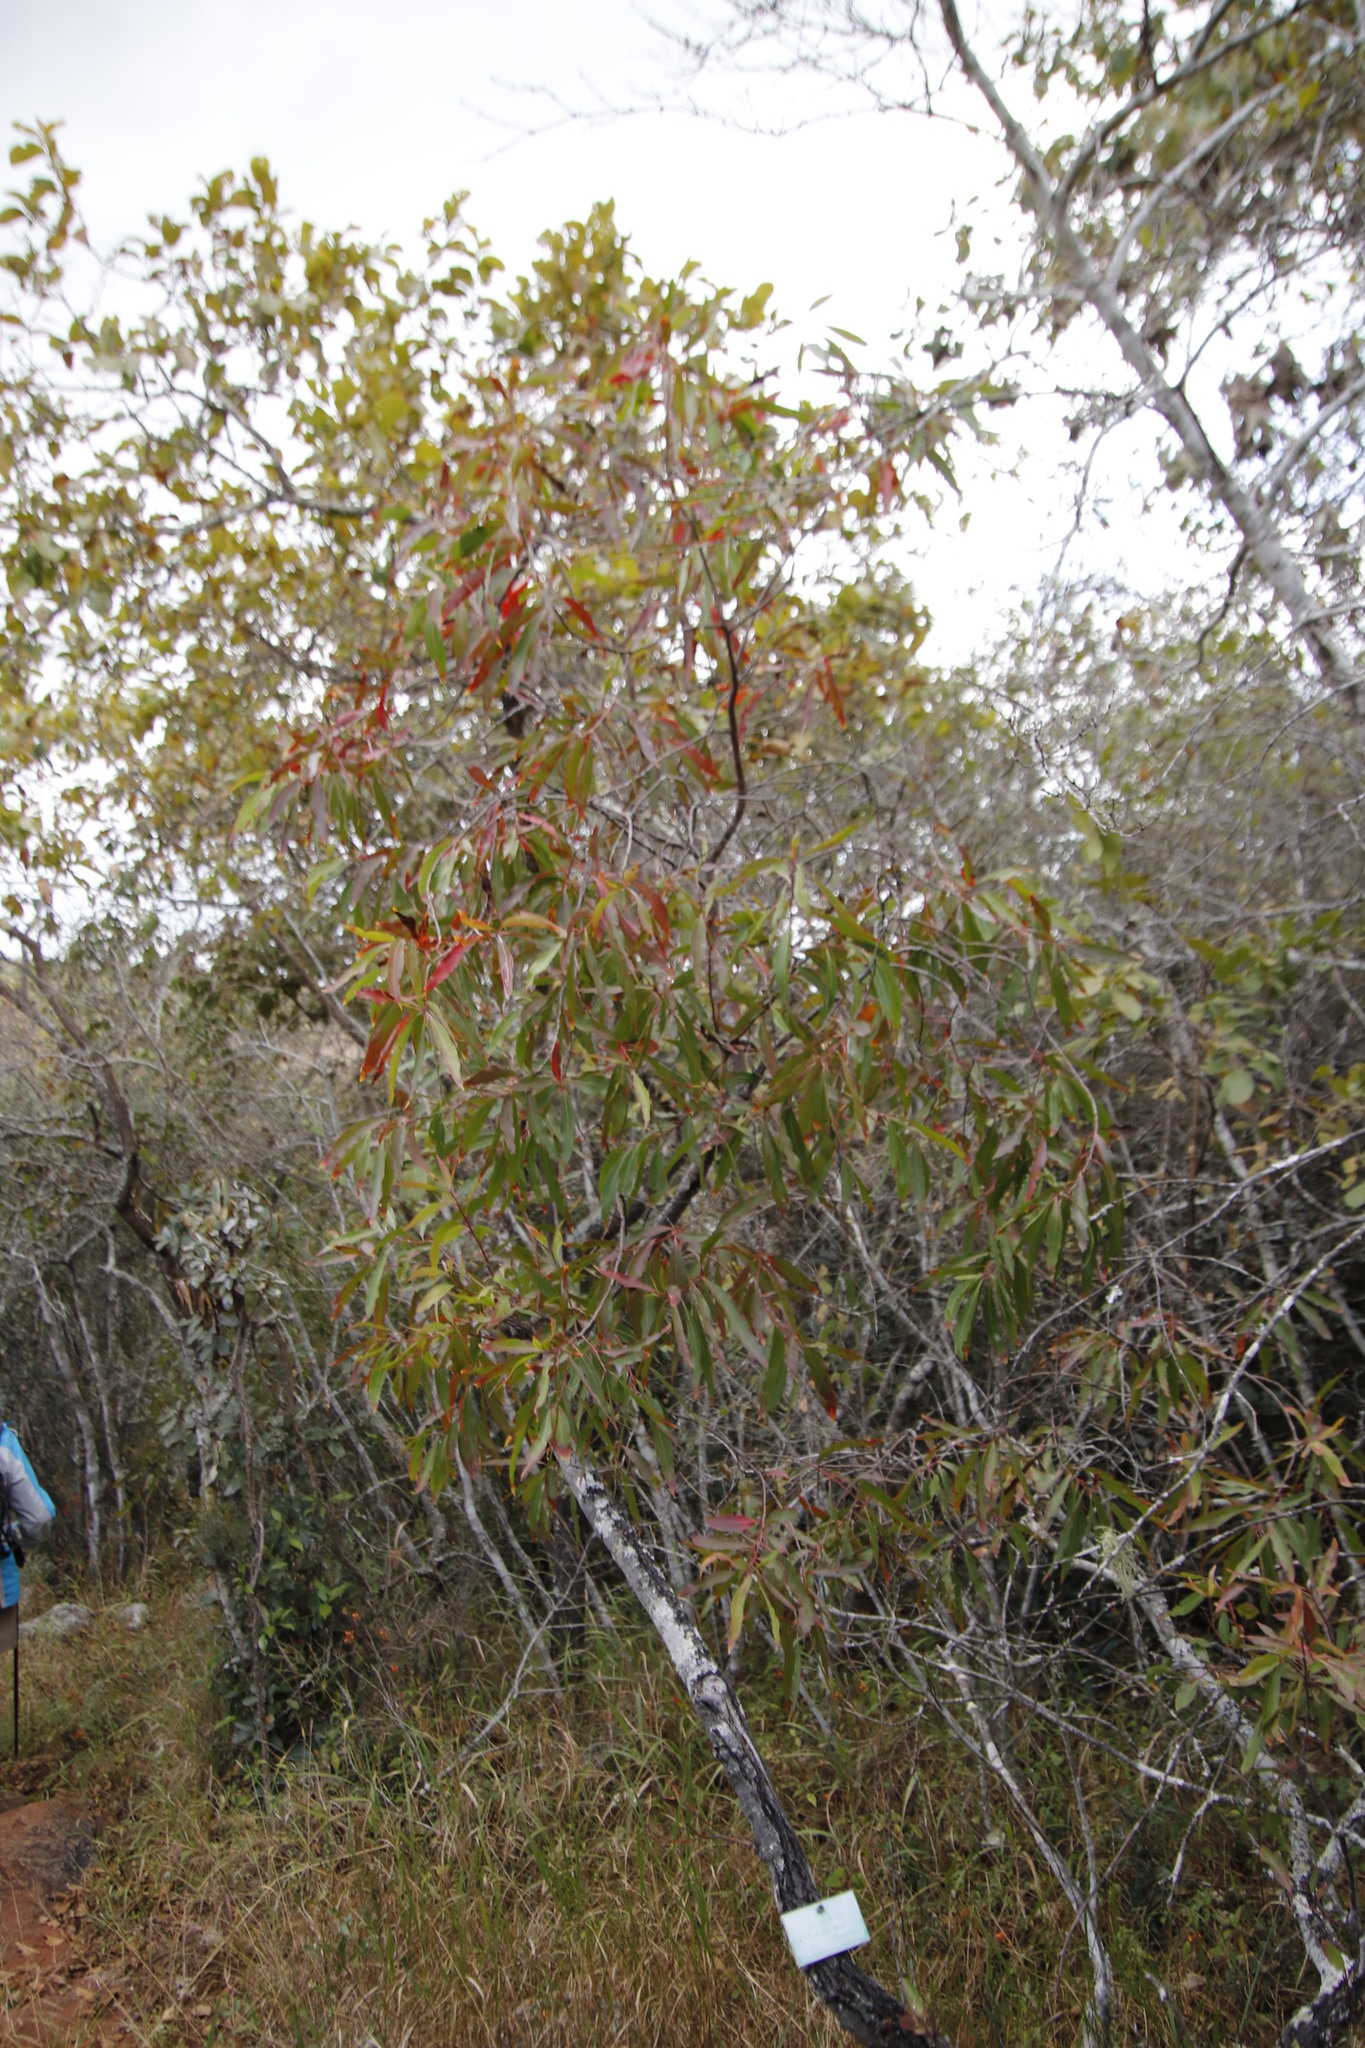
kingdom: Plantae
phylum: Tracheophyta
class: Magnoliopsida
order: Proteales
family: Proteaceae
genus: Faurea
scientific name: Faurea saligna
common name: African bean
